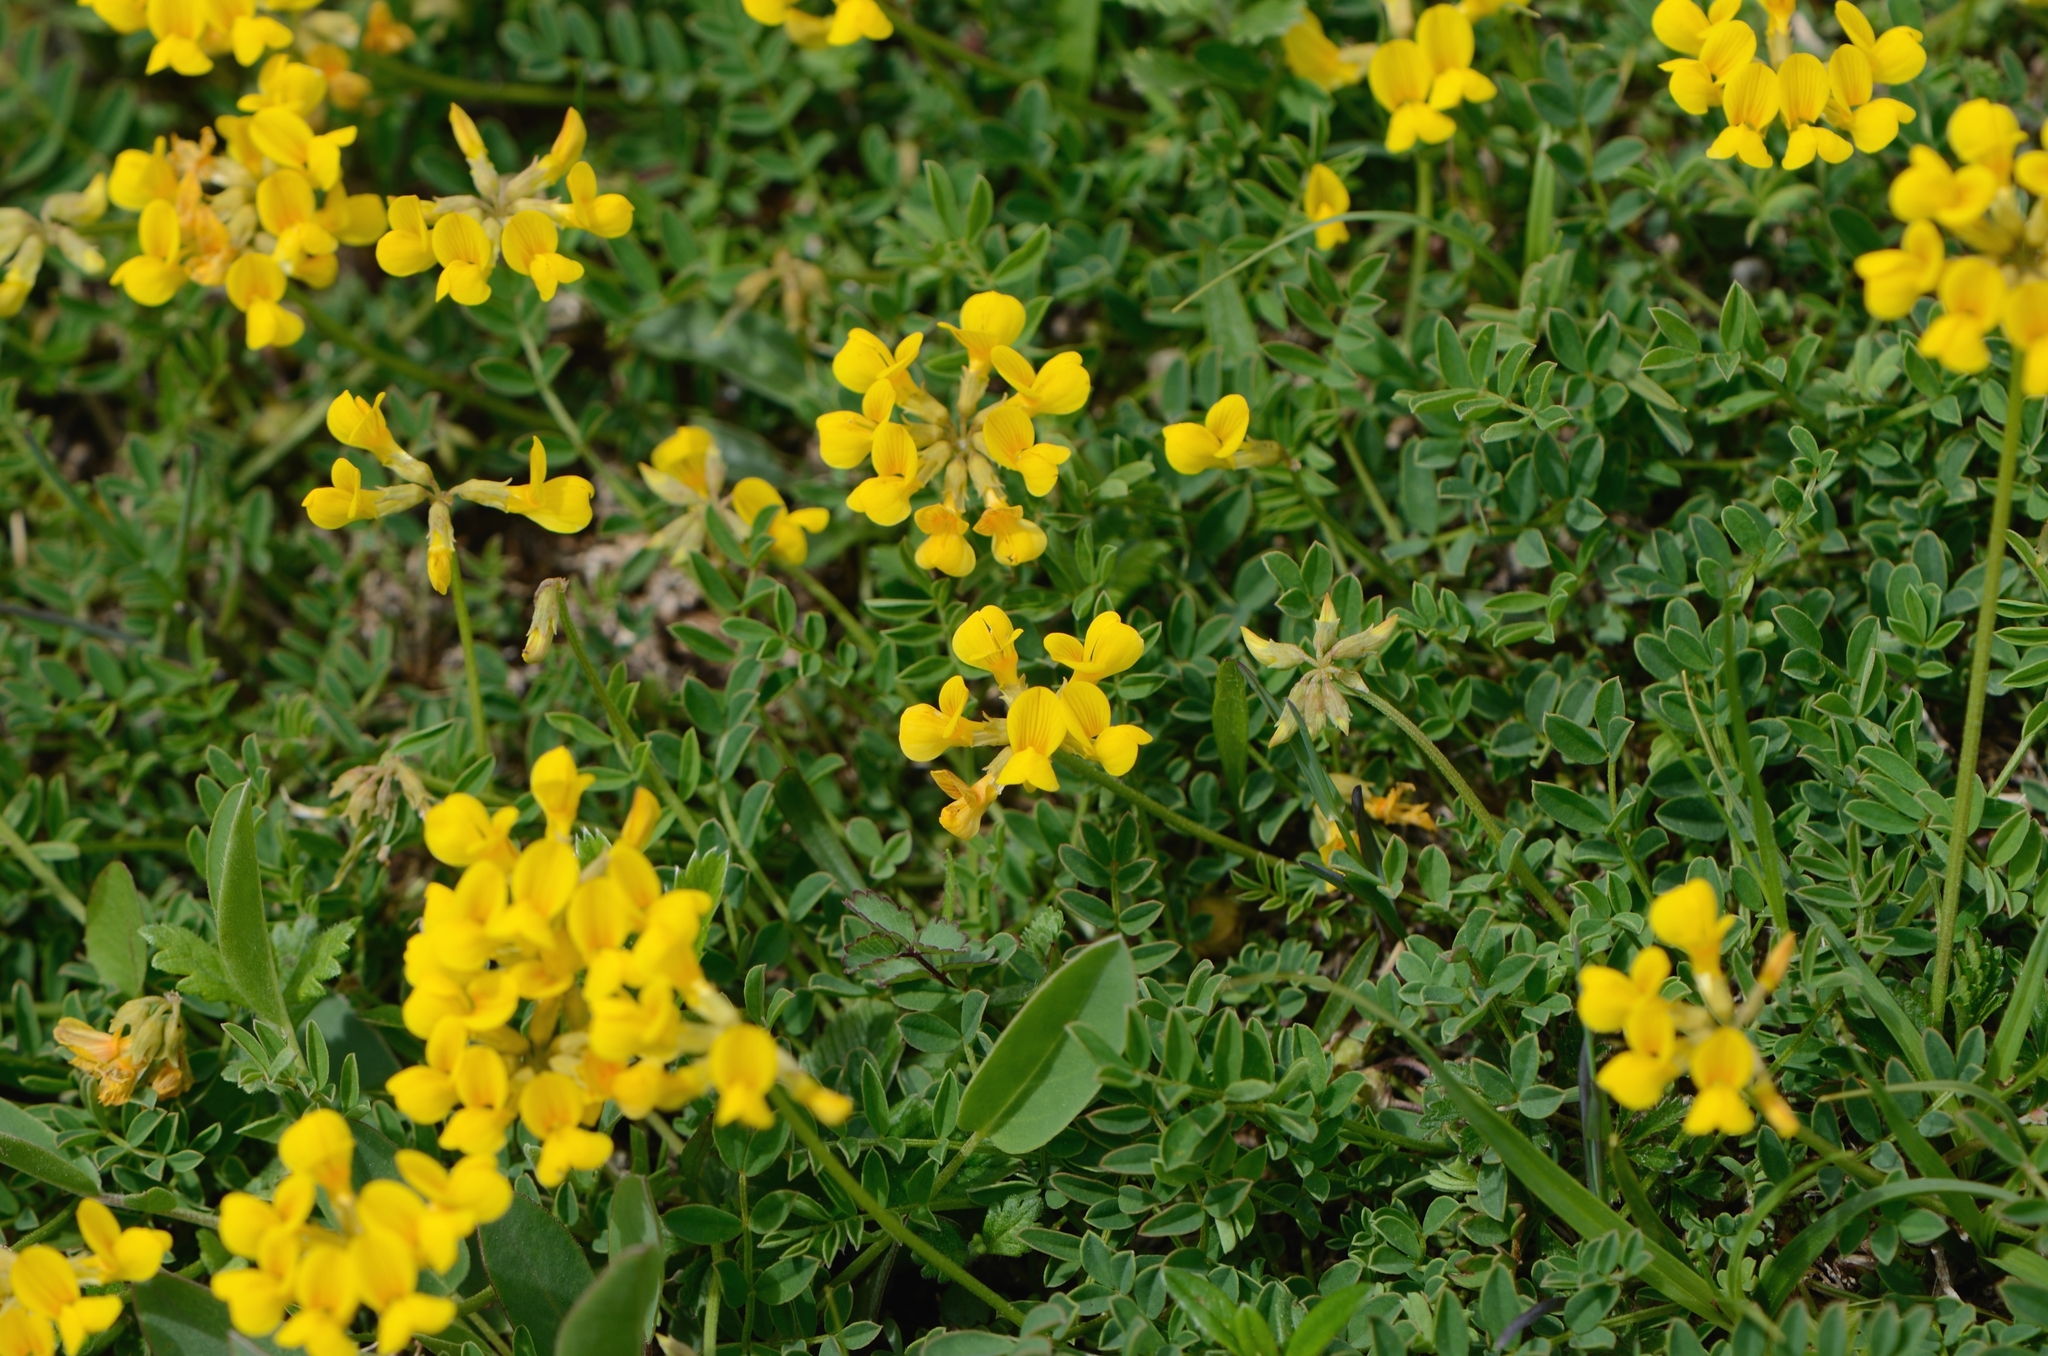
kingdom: Plantae
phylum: Tracheophyta
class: Magnoliopsida
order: Fabales
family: Fabaceae
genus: Hippocrepis
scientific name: Hippocrepis comosa
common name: Horseshoe vetch
